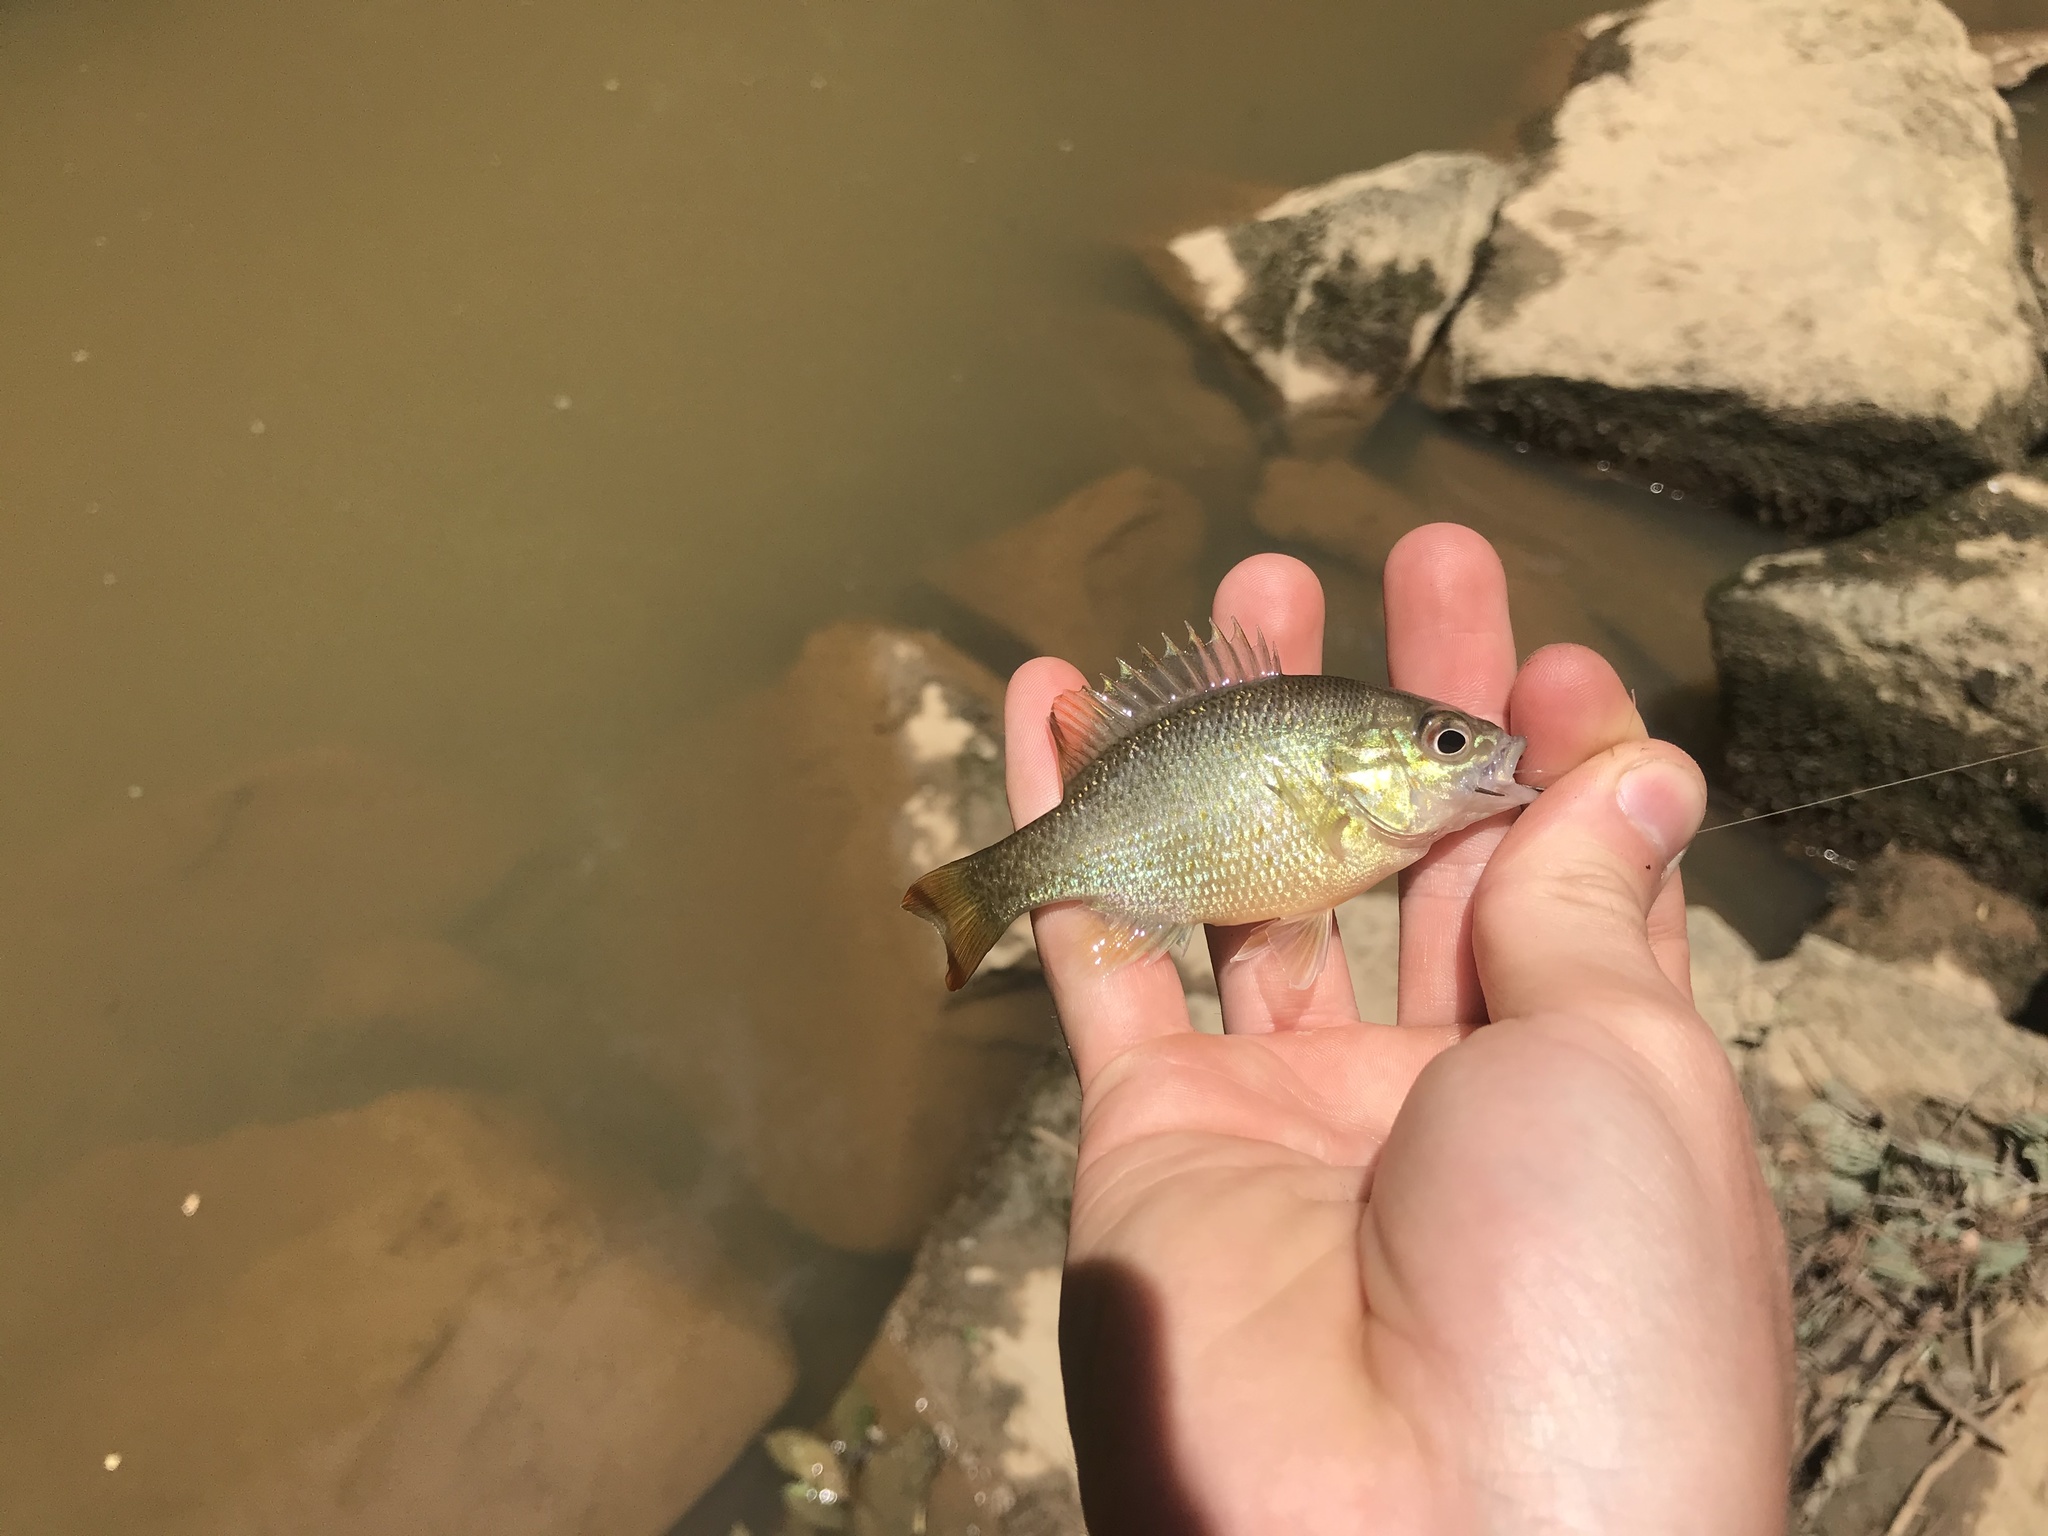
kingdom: Animalia
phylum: Chordata
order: Perciformes
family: Centrarchidae
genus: Lepomis
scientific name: Lepomis auritus
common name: Redbreast sunfish
